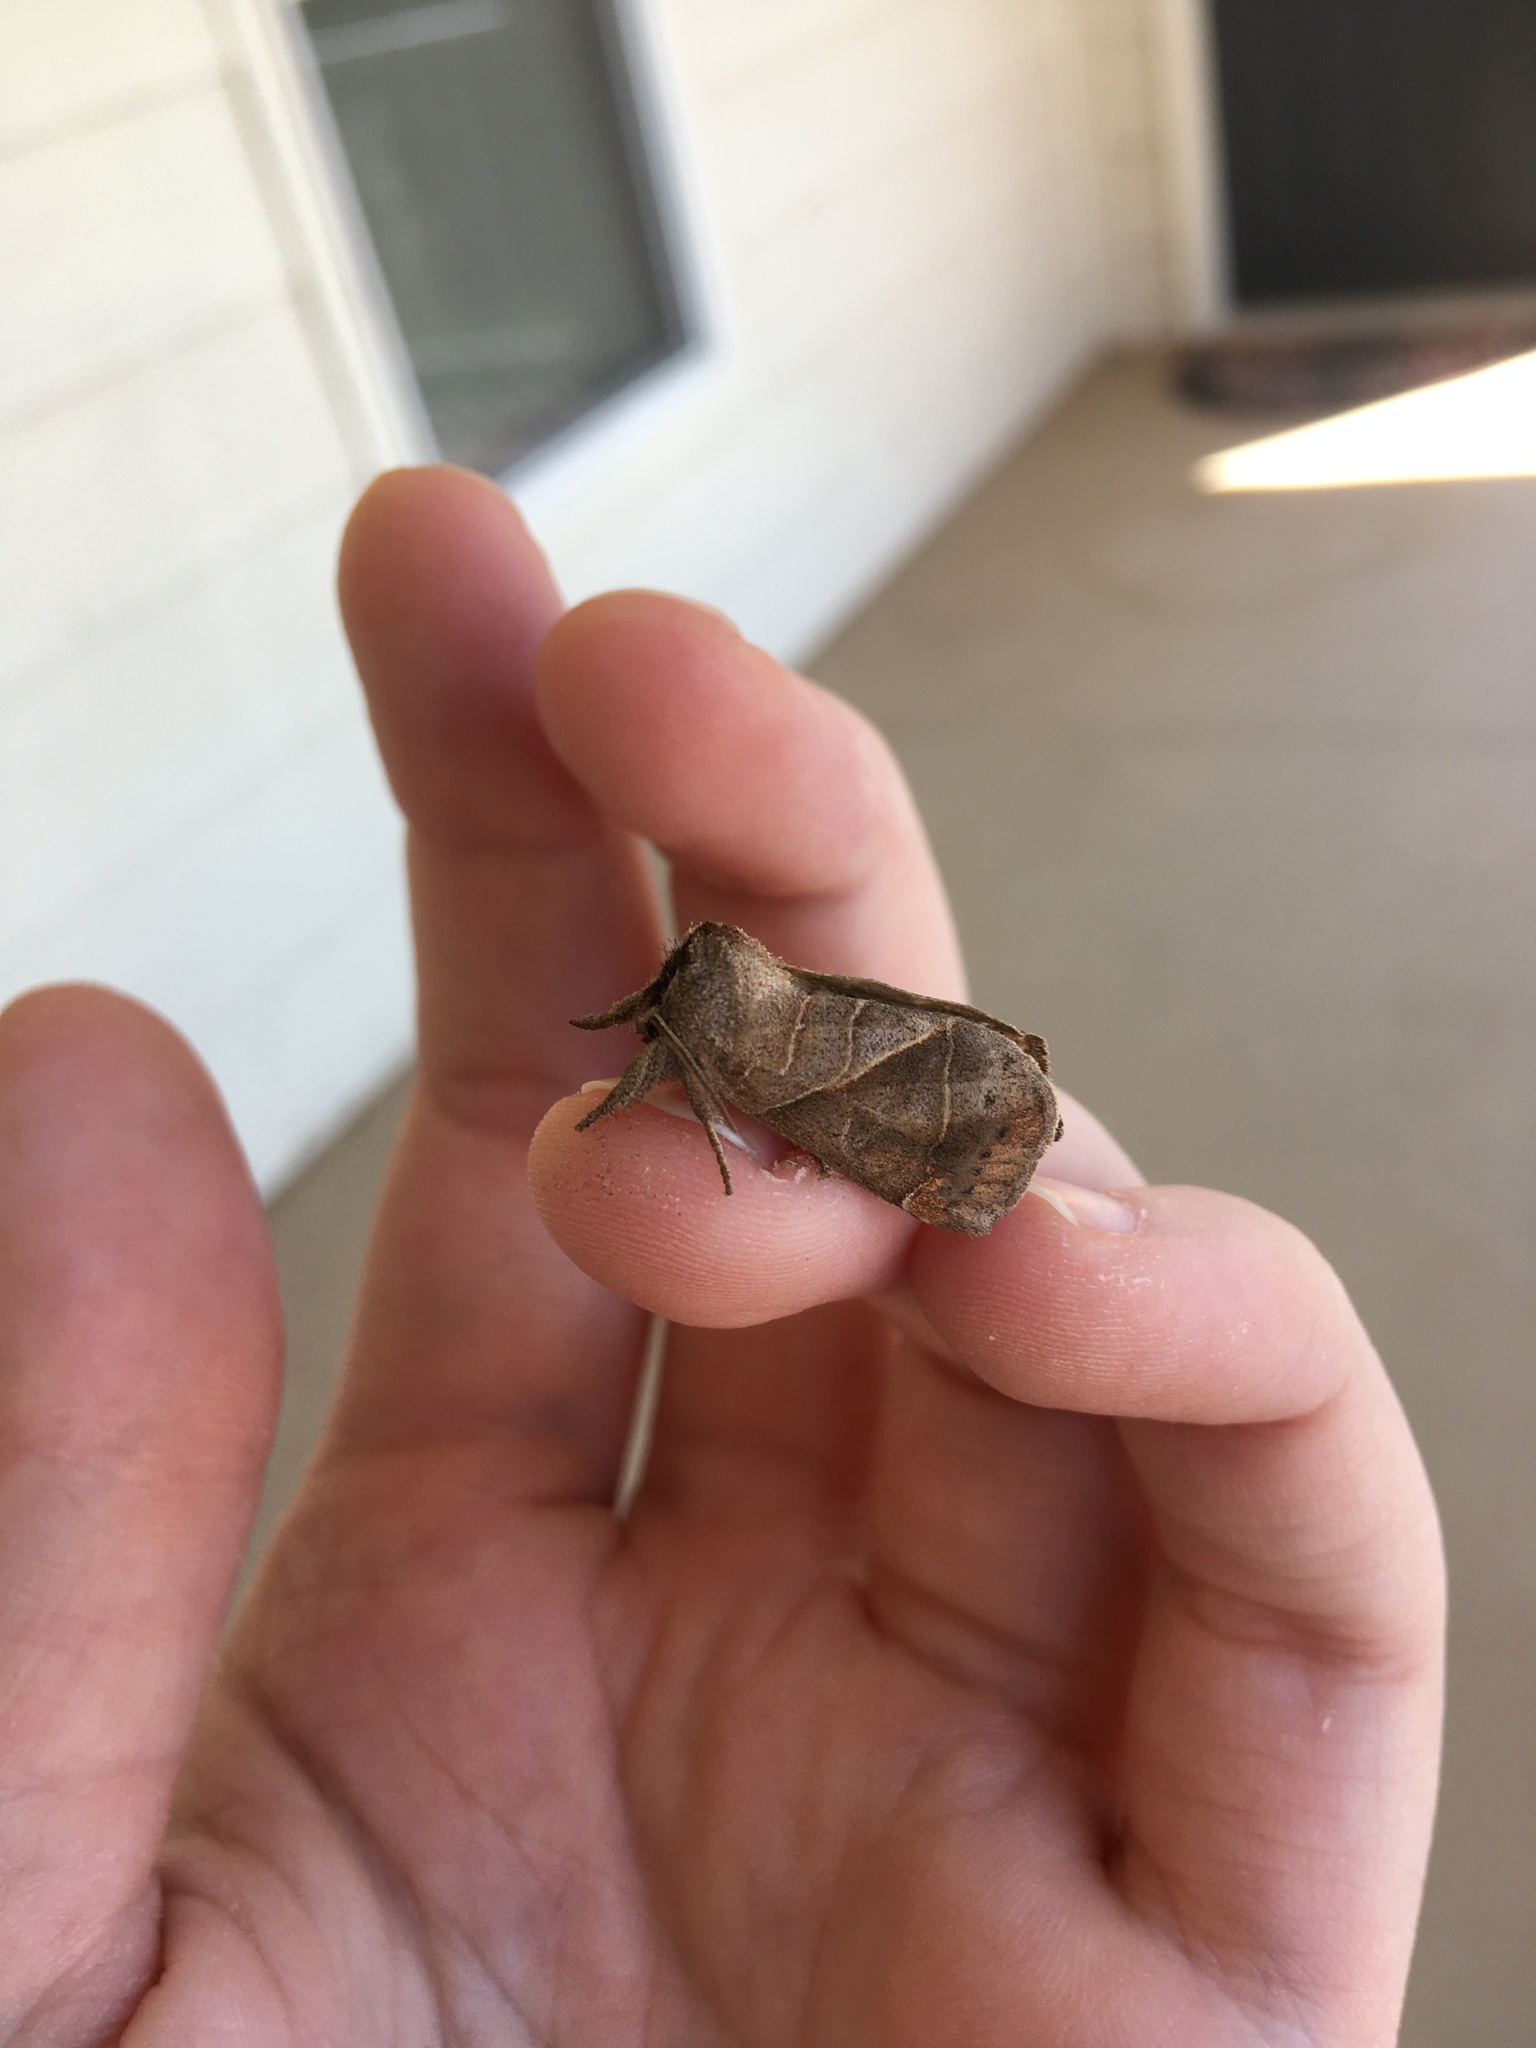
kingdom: Animalia
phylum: Arthropoda
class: Insecta
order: Lepidoptera
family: Notodontidae
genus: Clostera
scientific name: Clostera inclusa
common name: Angle-lined prominent
